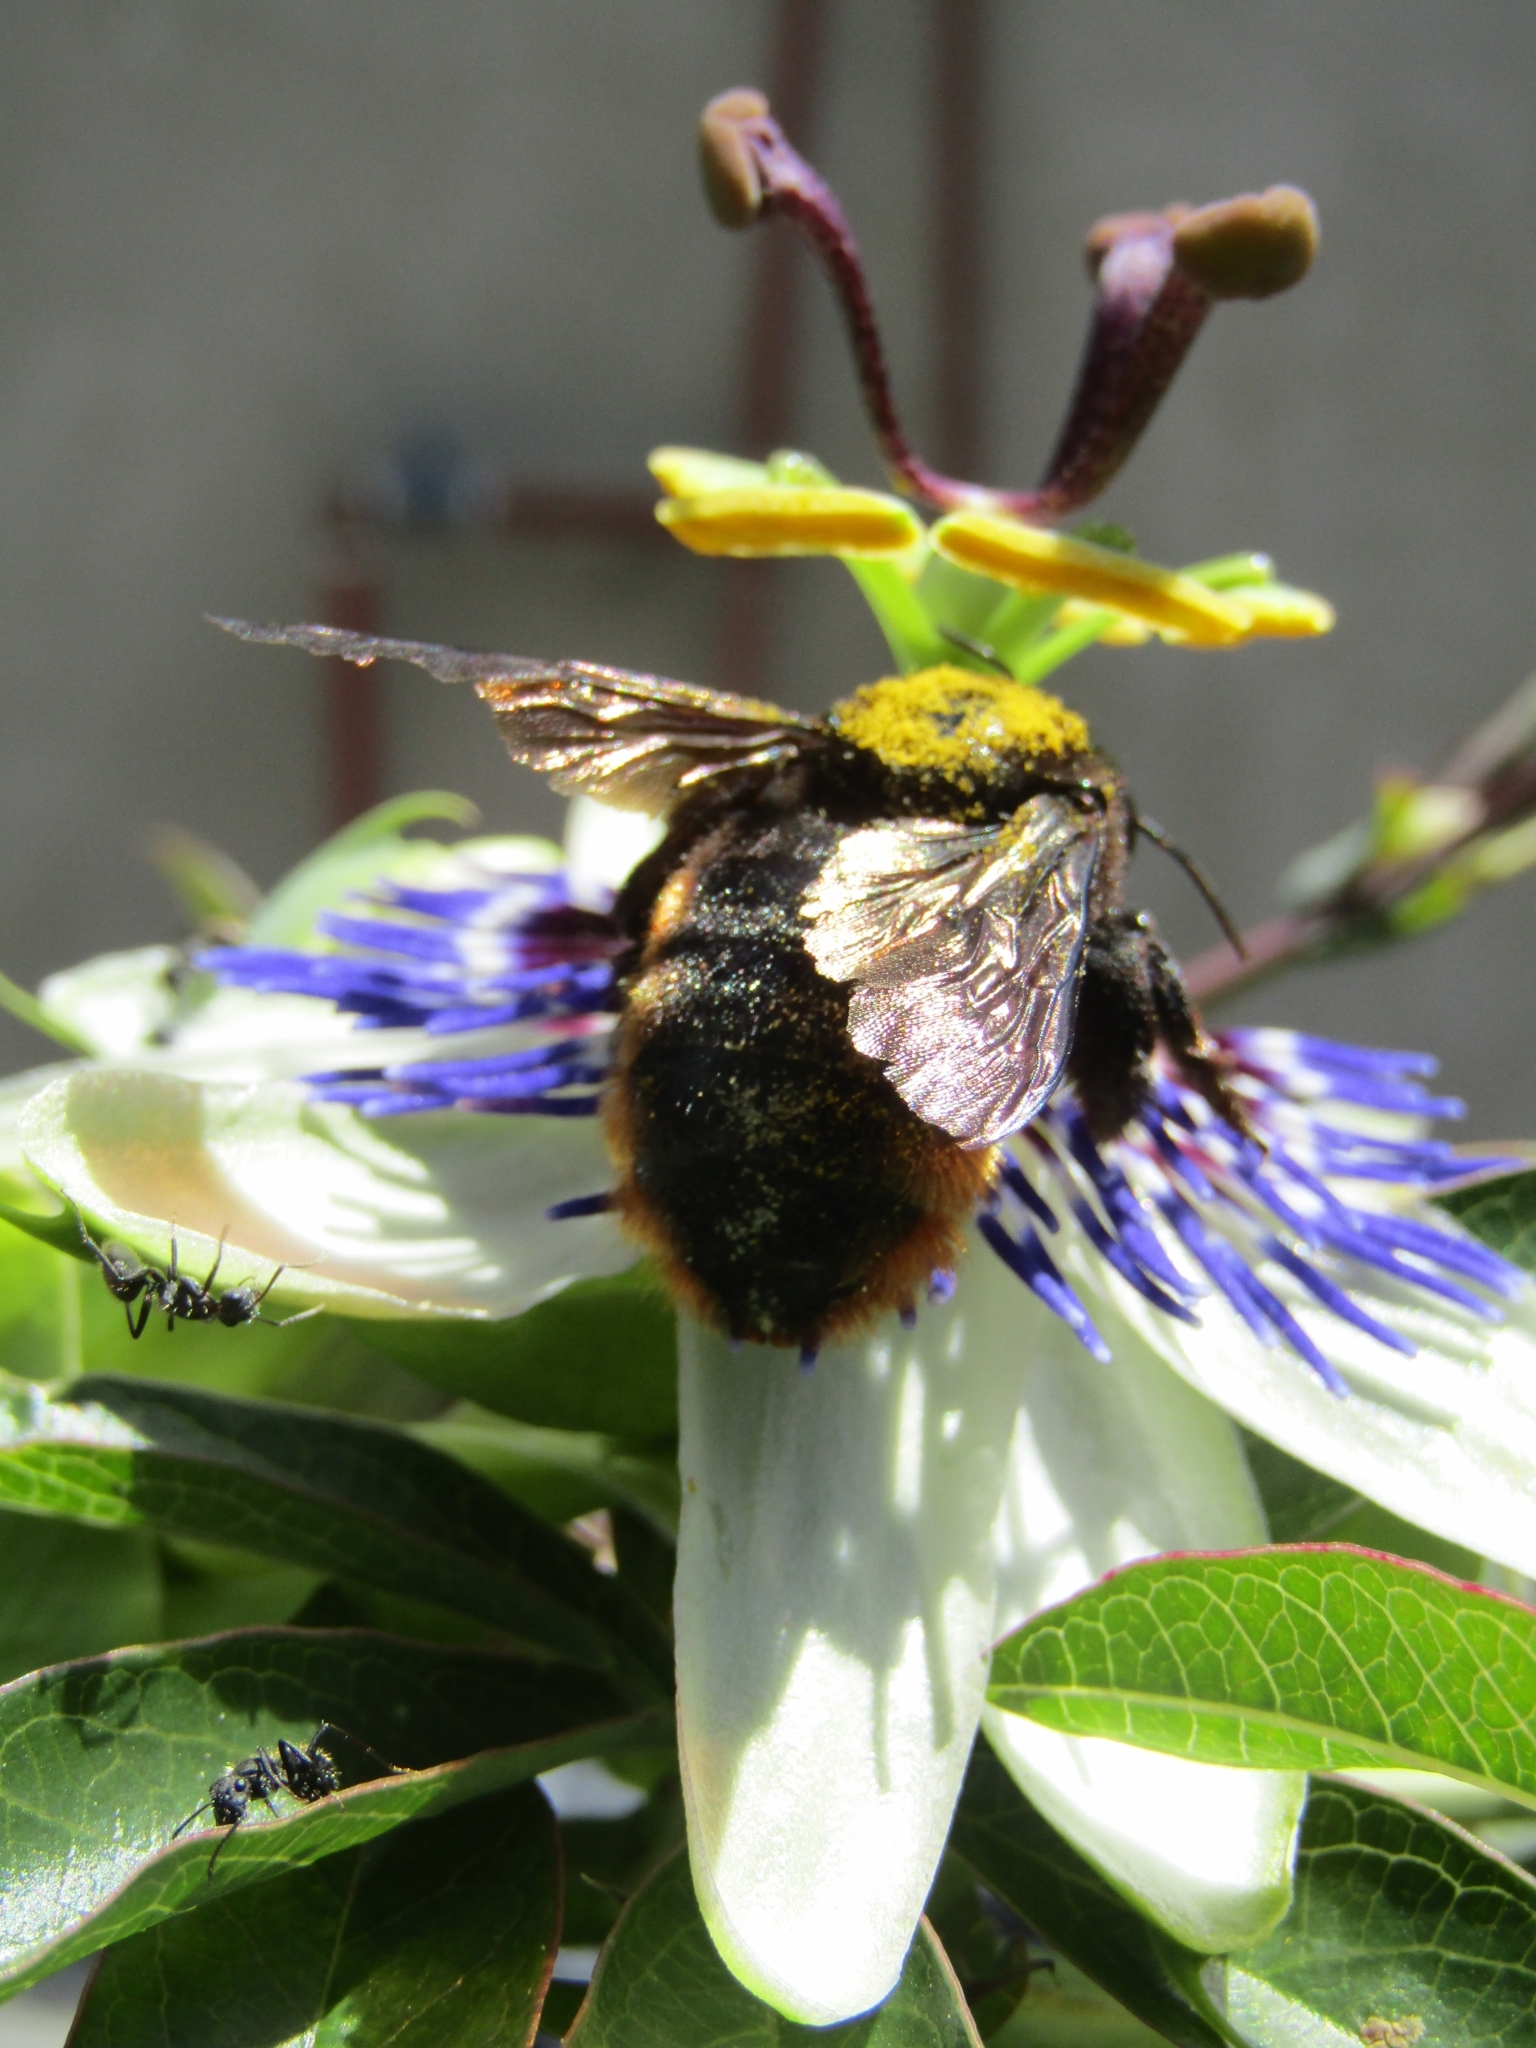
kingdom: Animalia
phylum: Arthropoda
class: Insecta
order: Hymenoptera
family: Apidae
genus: Xylocopa
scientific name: Xylocopa augusti
